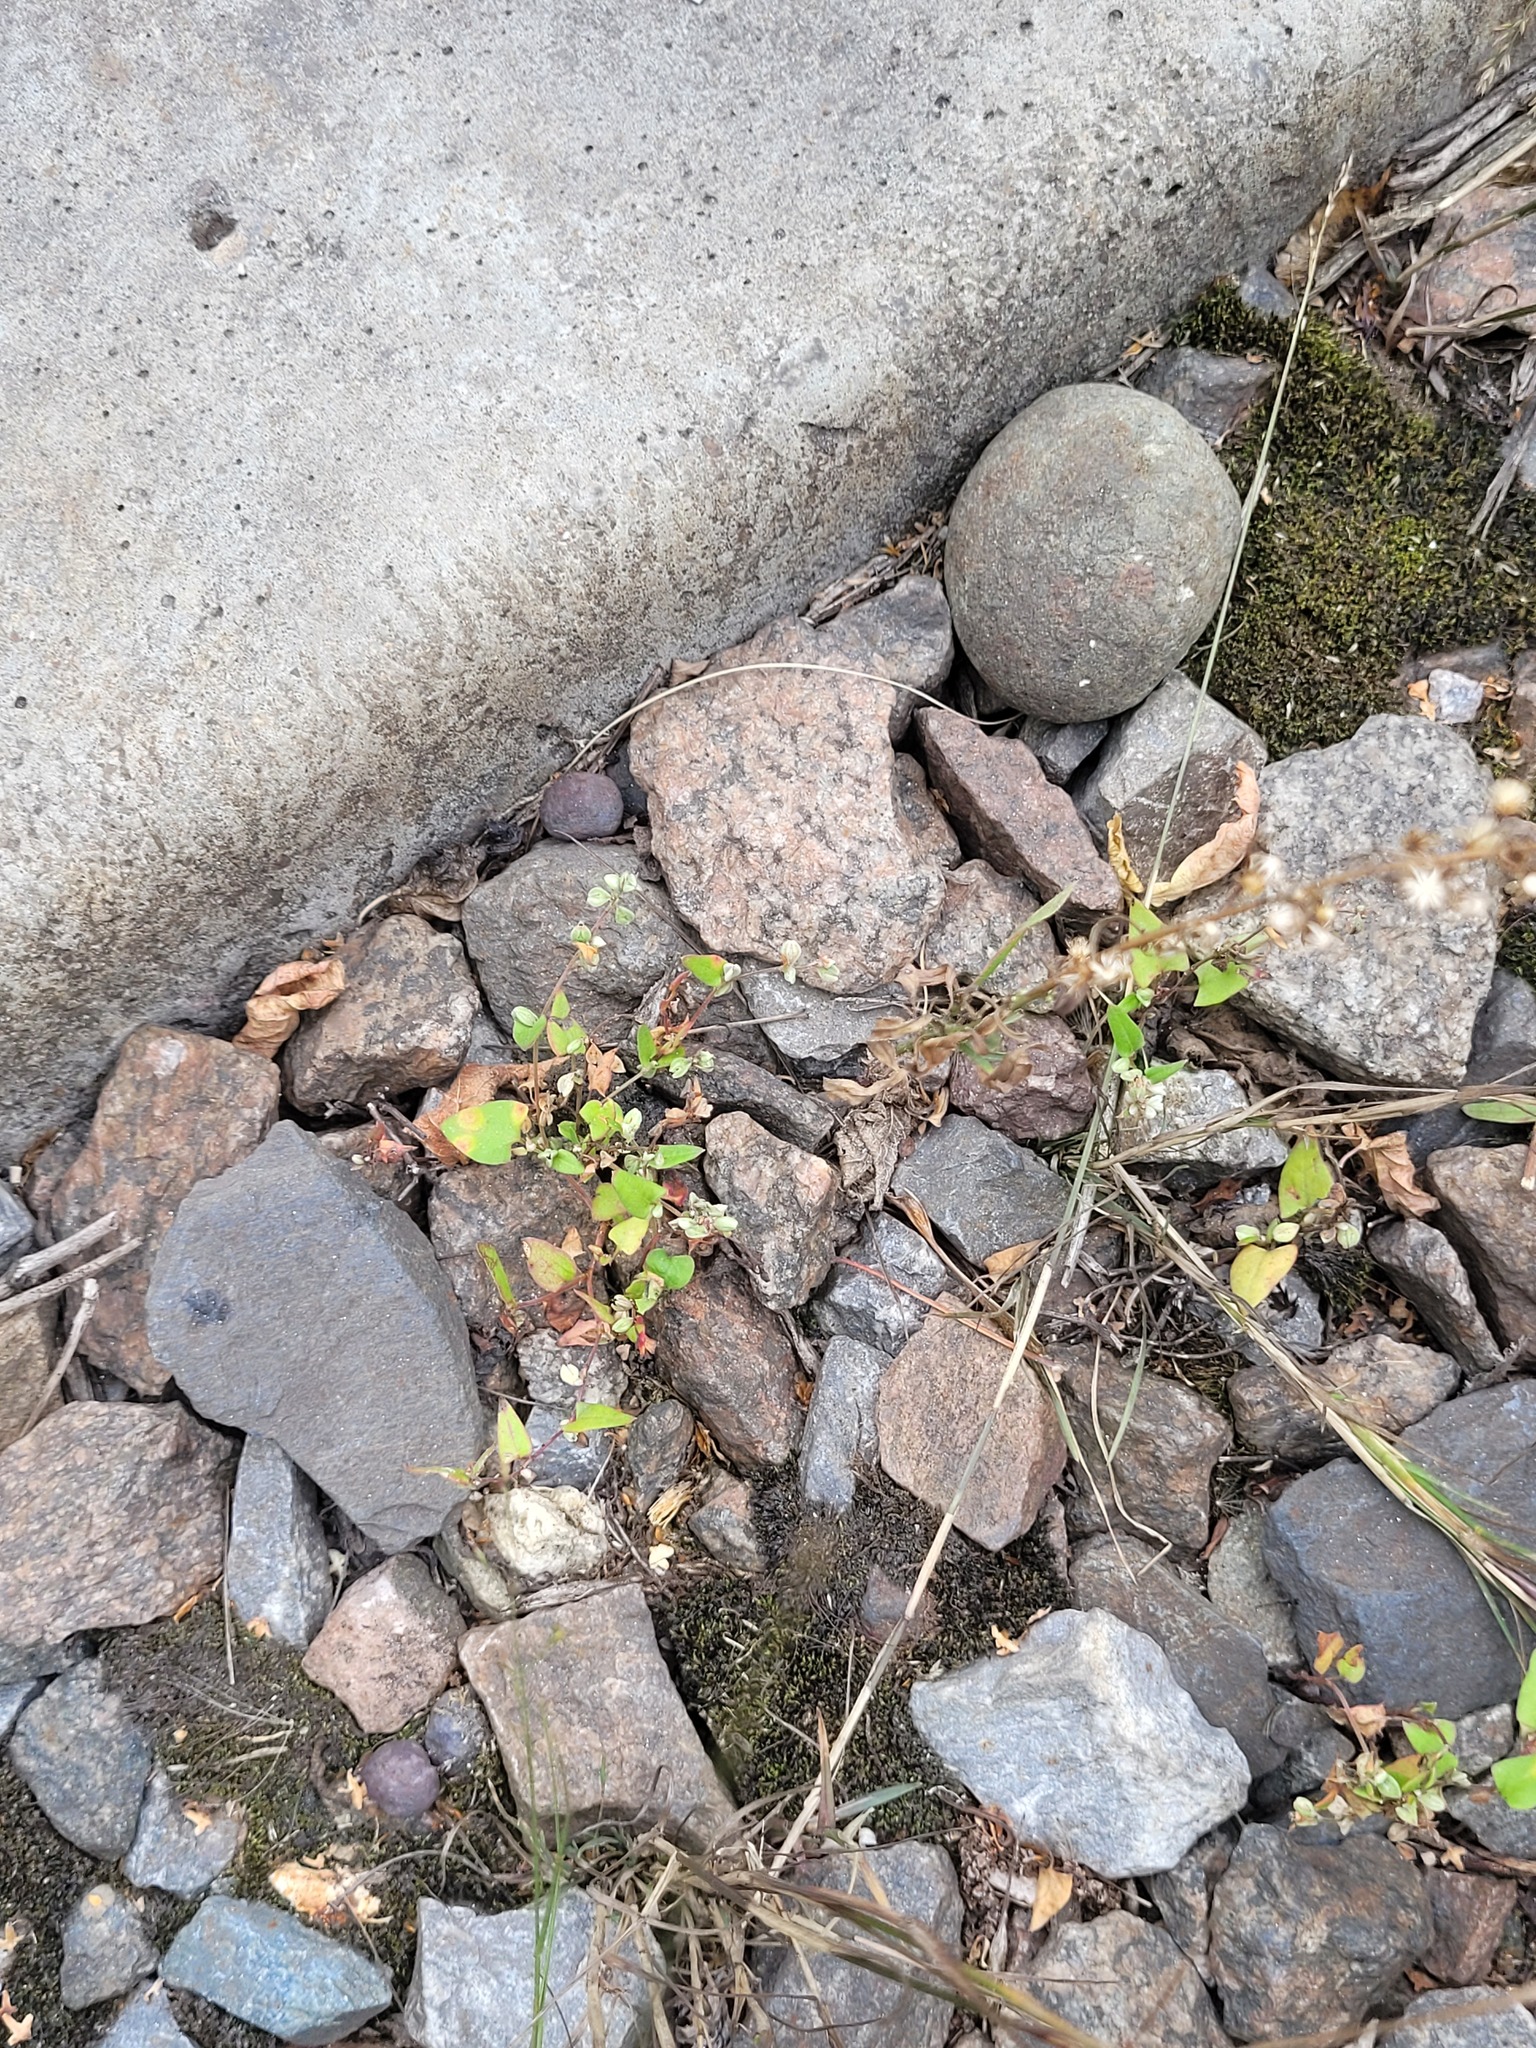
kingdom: Plantae
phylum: Tracheophyta
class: Magnoliopsida
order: Caryophyllales
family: Polygonaceae
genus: Fallopia
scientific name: Fallopia convolvulus
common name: Black bindweed
